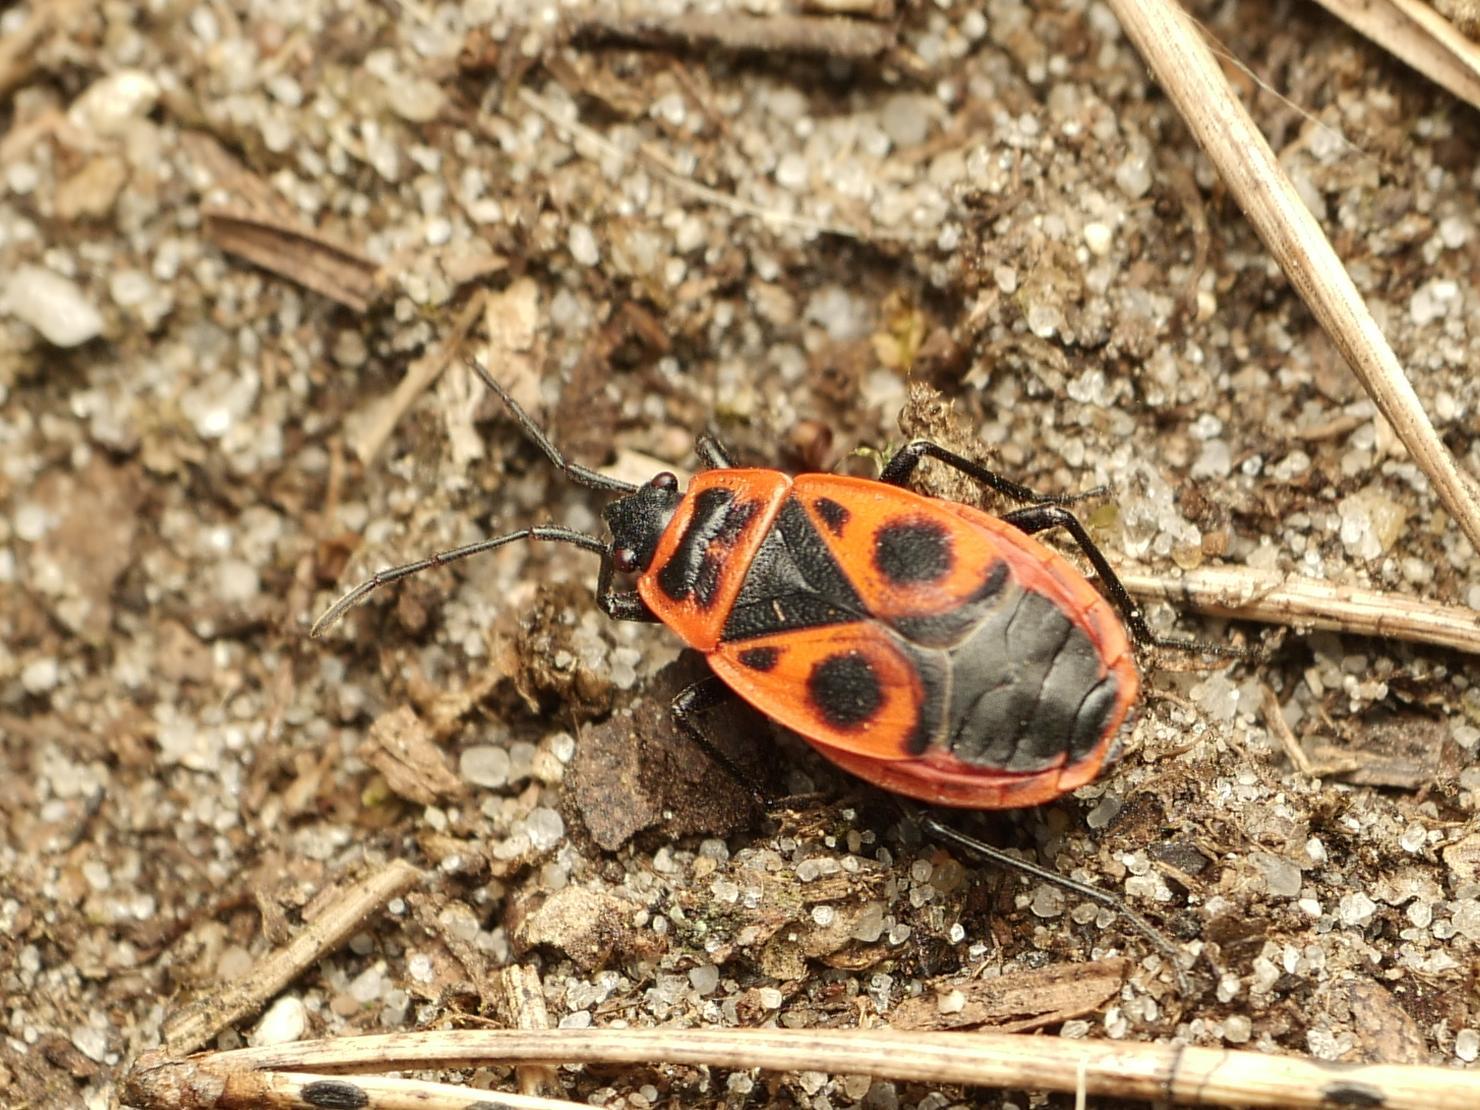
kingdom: Animalia
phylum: Arthropoda
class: Insecta
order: Hemiptera
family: Pyrrhocoridae
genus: Pyrrhocoris
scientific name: Pyrrhocoris apterus
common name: Firebug
